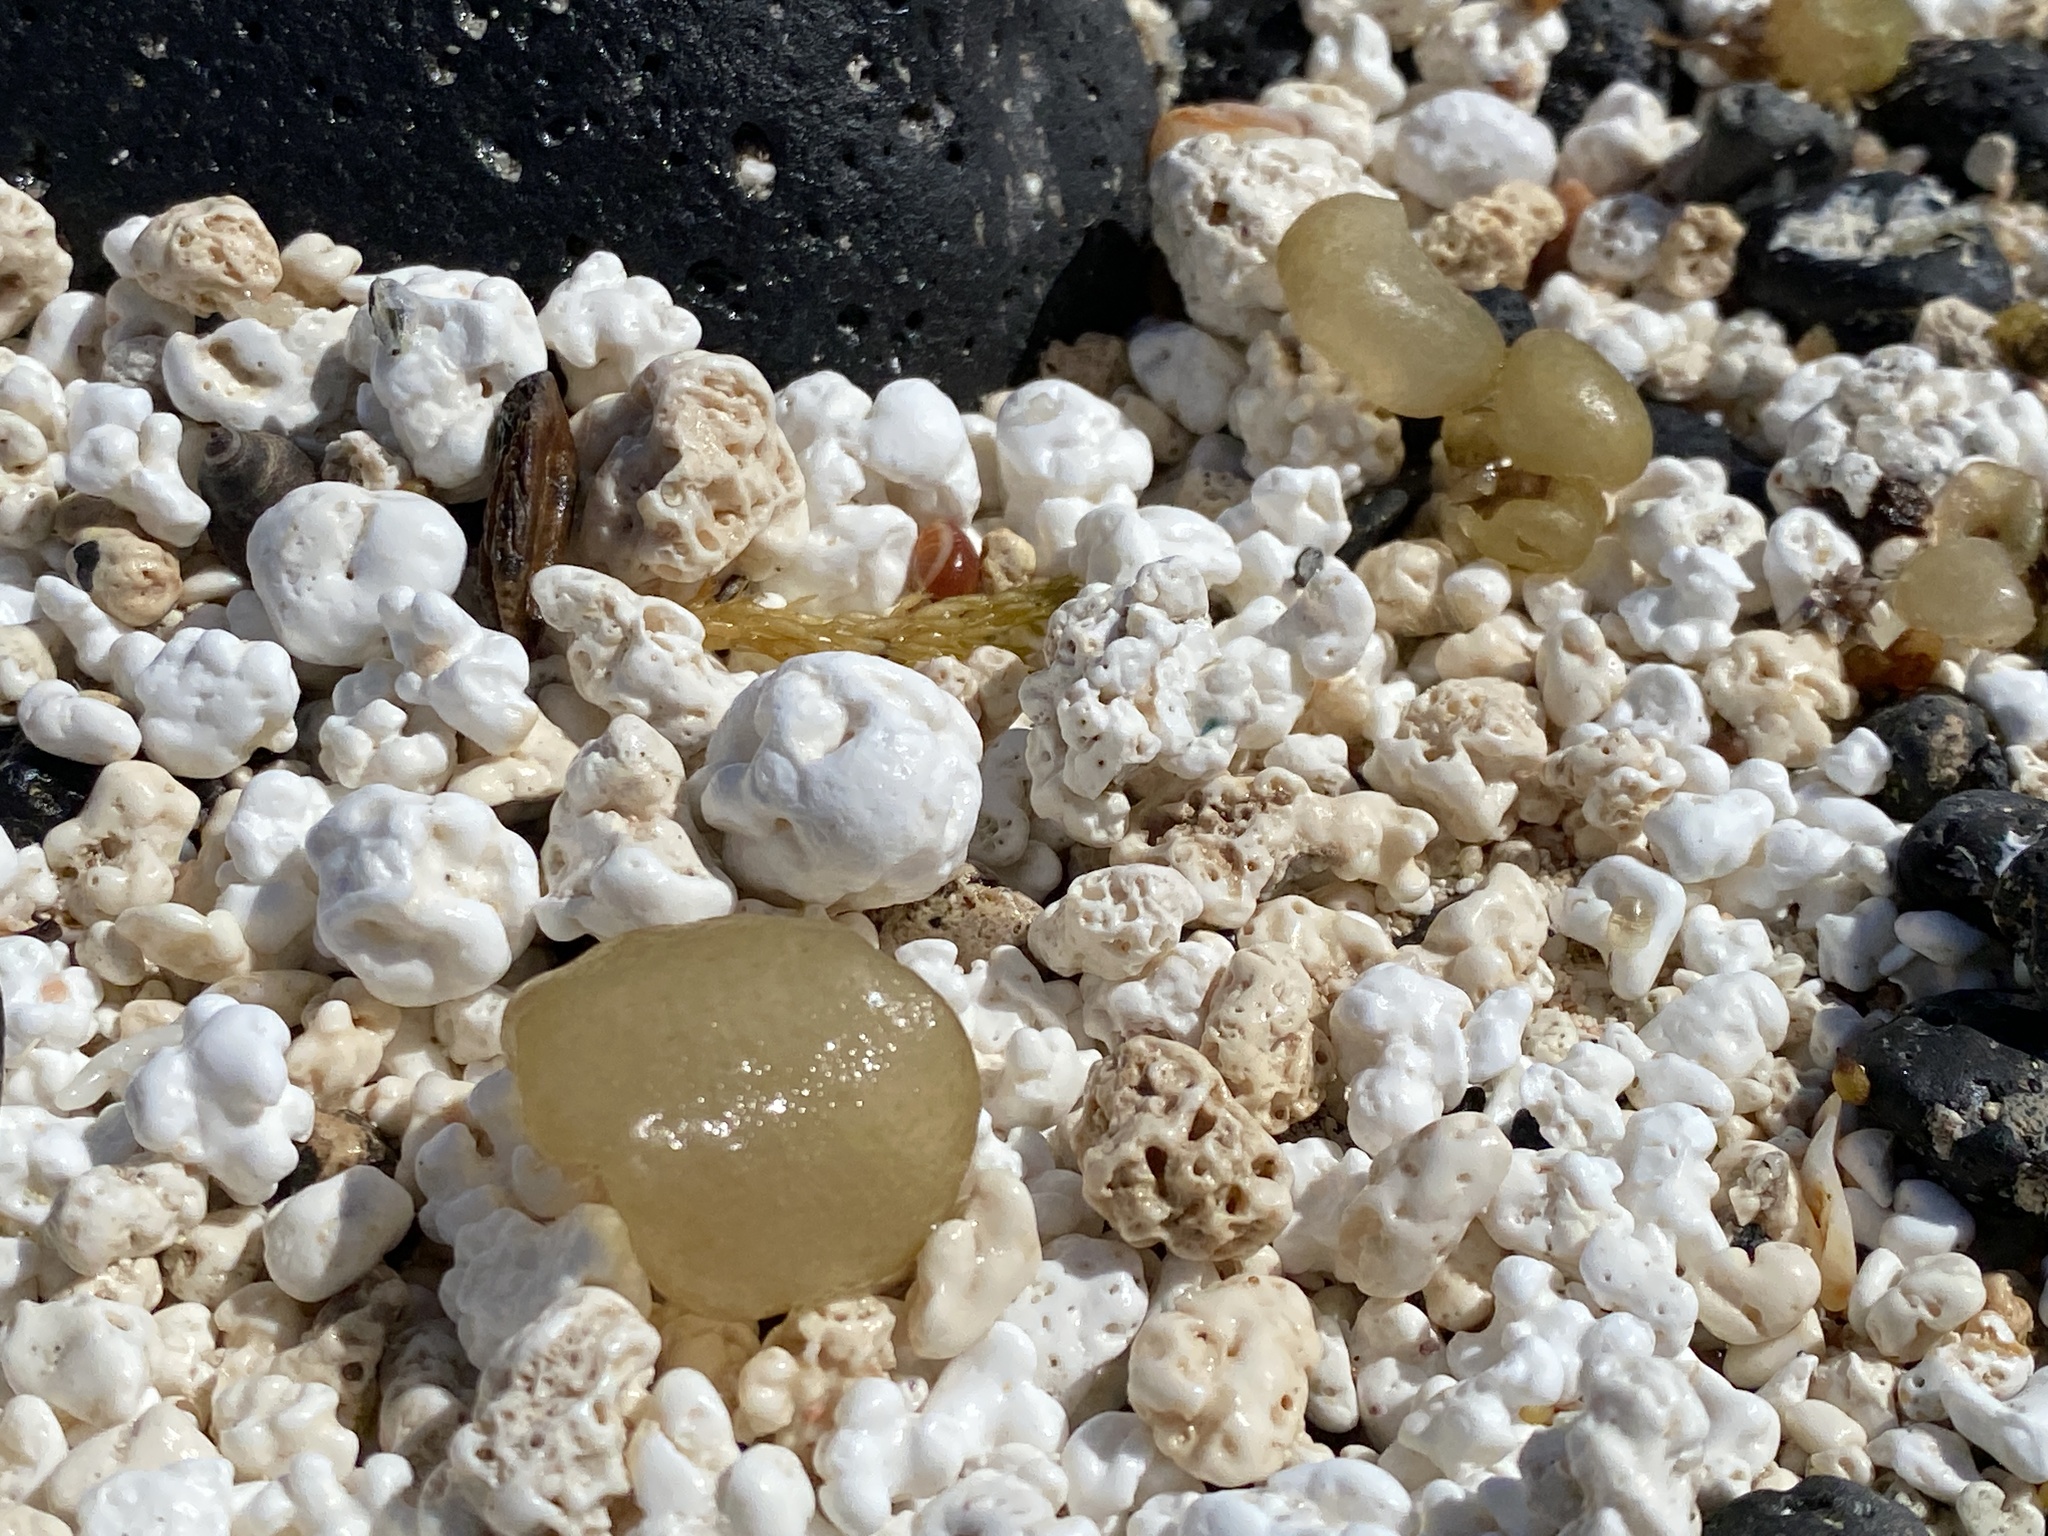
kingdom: Chromista
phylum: Ochrophyta
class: Phaeophyceae
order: Scytosiphonales
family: Scytosiphonaceae
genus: Colpomenia
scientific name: Colpomenia peregrina
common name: Oyster thief
